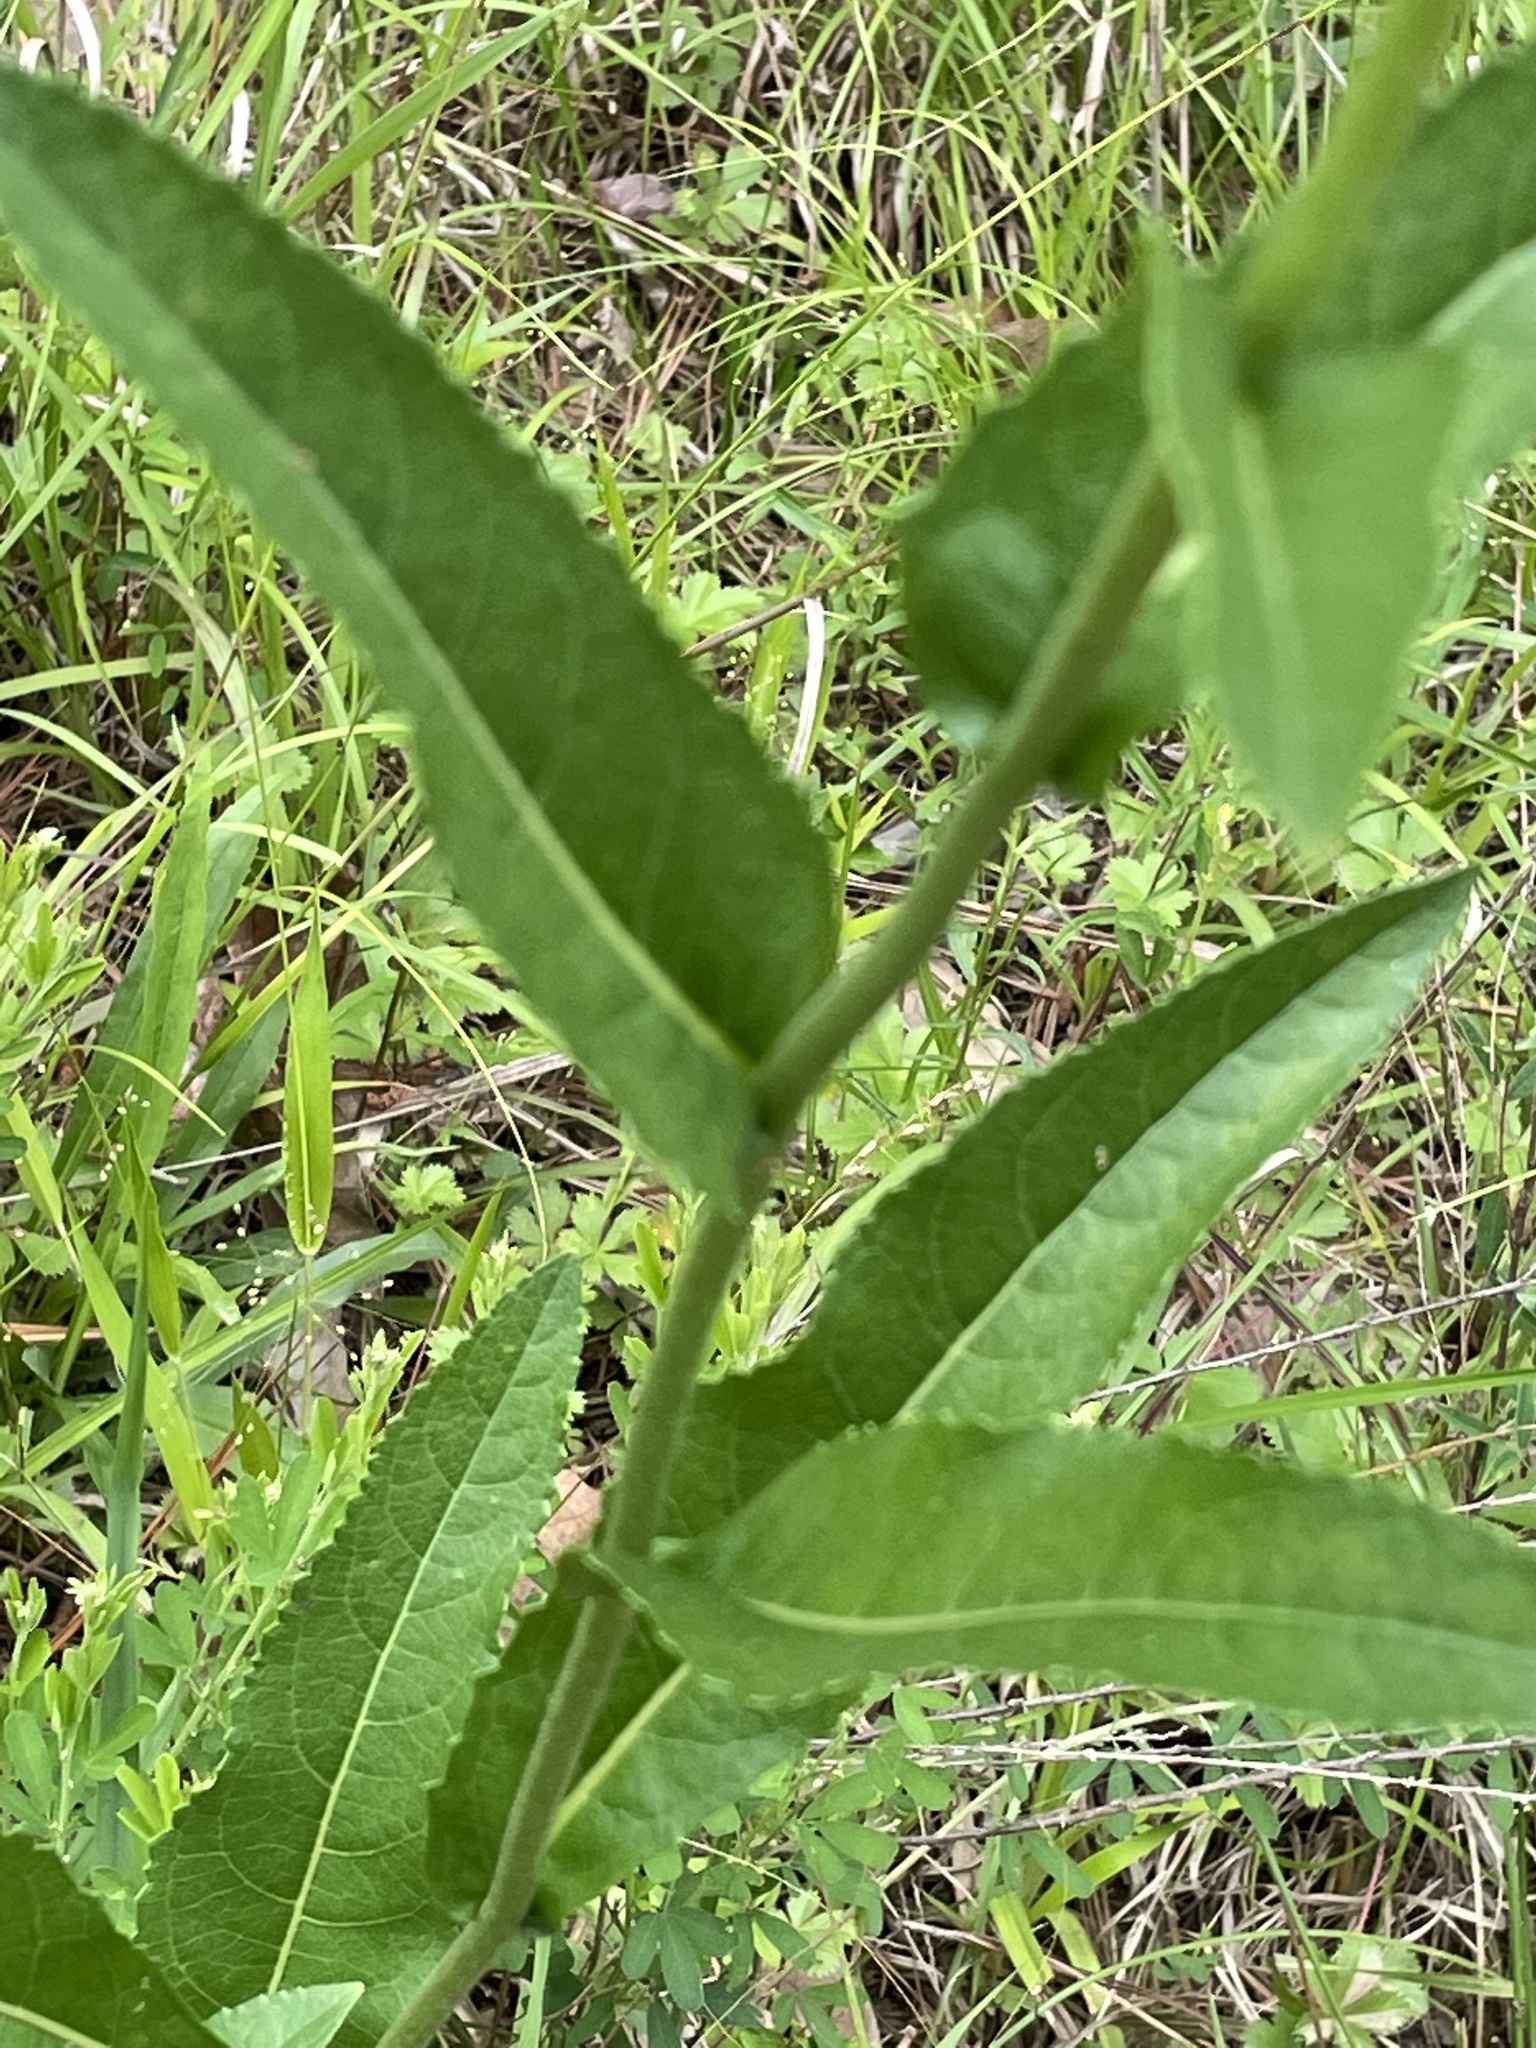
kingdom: Plantae
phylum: Tracheophyta
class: Magnoliopsida
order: Asterales
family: Asteraceae
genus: Parthenium
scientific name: Parthenium integrifolium
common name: American feverfew
